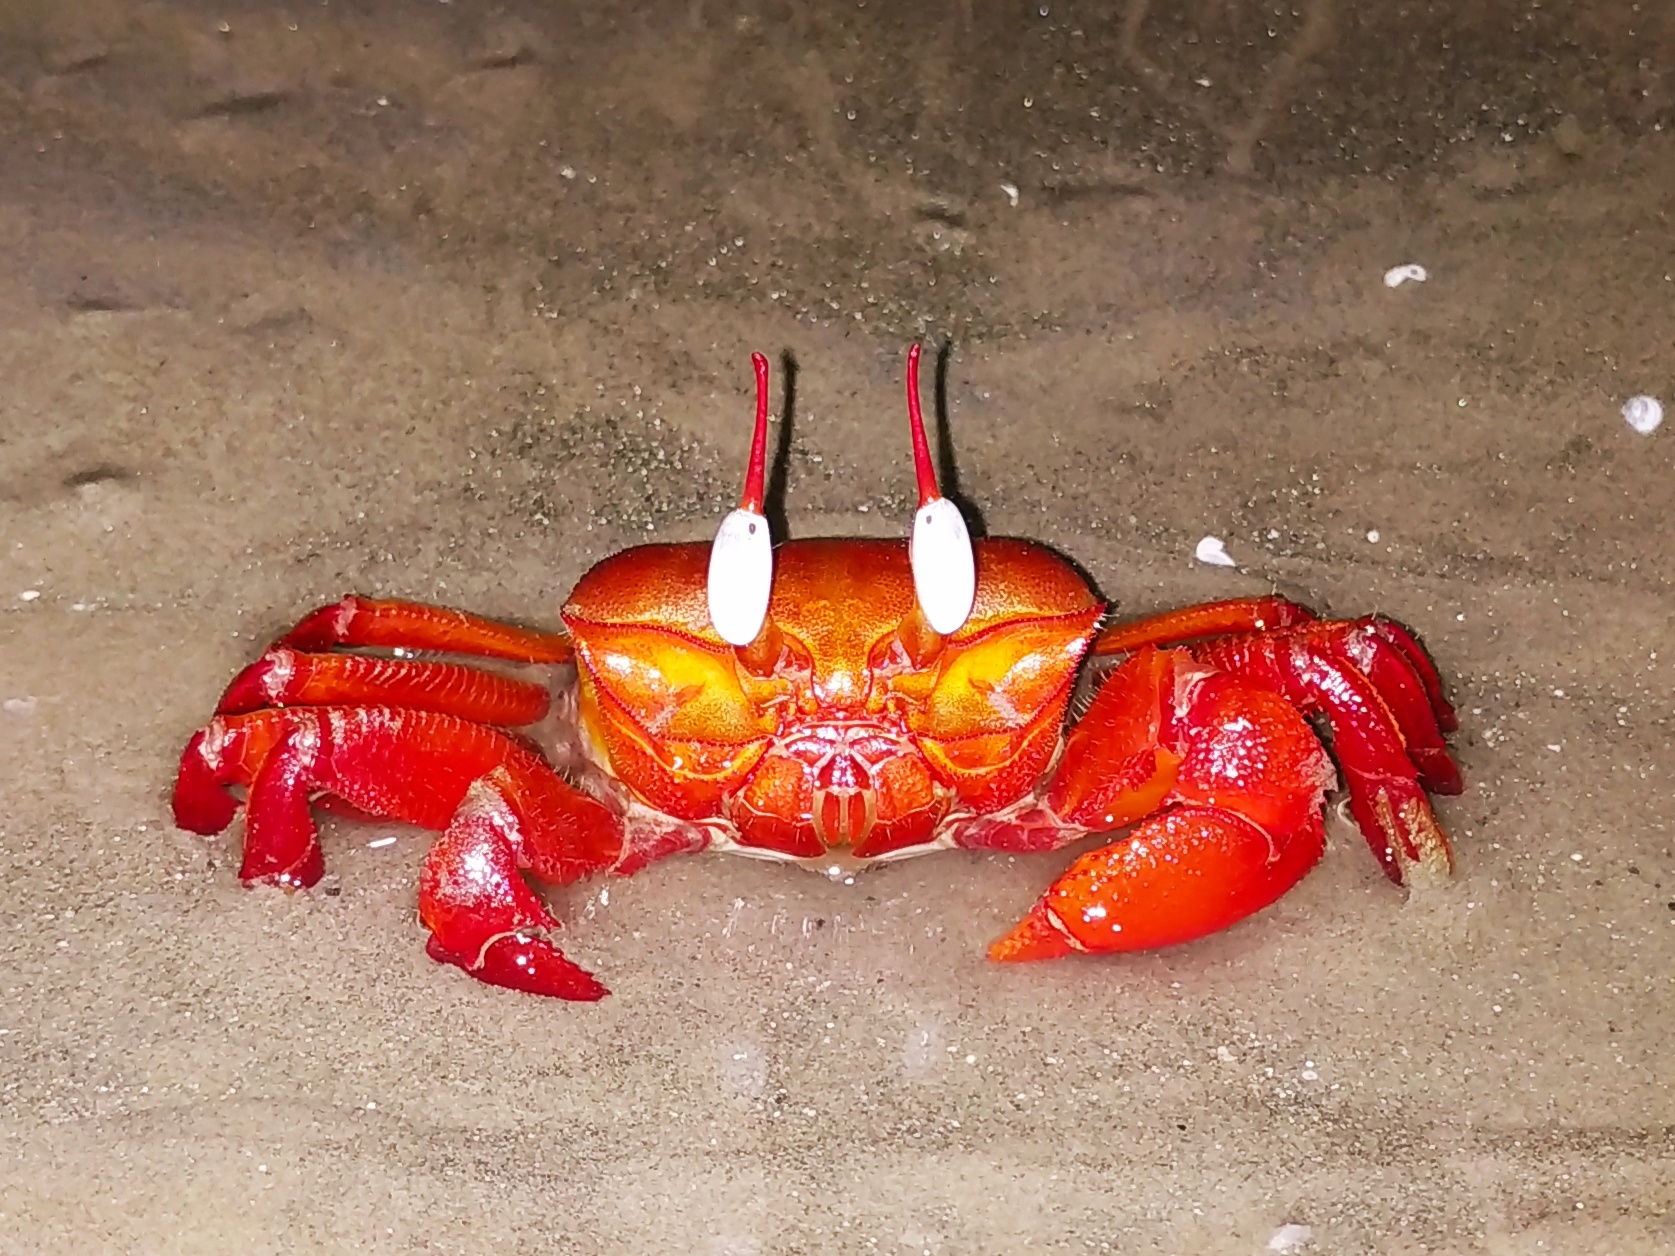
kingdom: Animalia
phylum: Arthropoda
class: Malacostraca
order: Decapoda
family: Ocypodidae
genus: Ocypode
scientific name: Ocypode macrocera
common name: Red ghost crab
